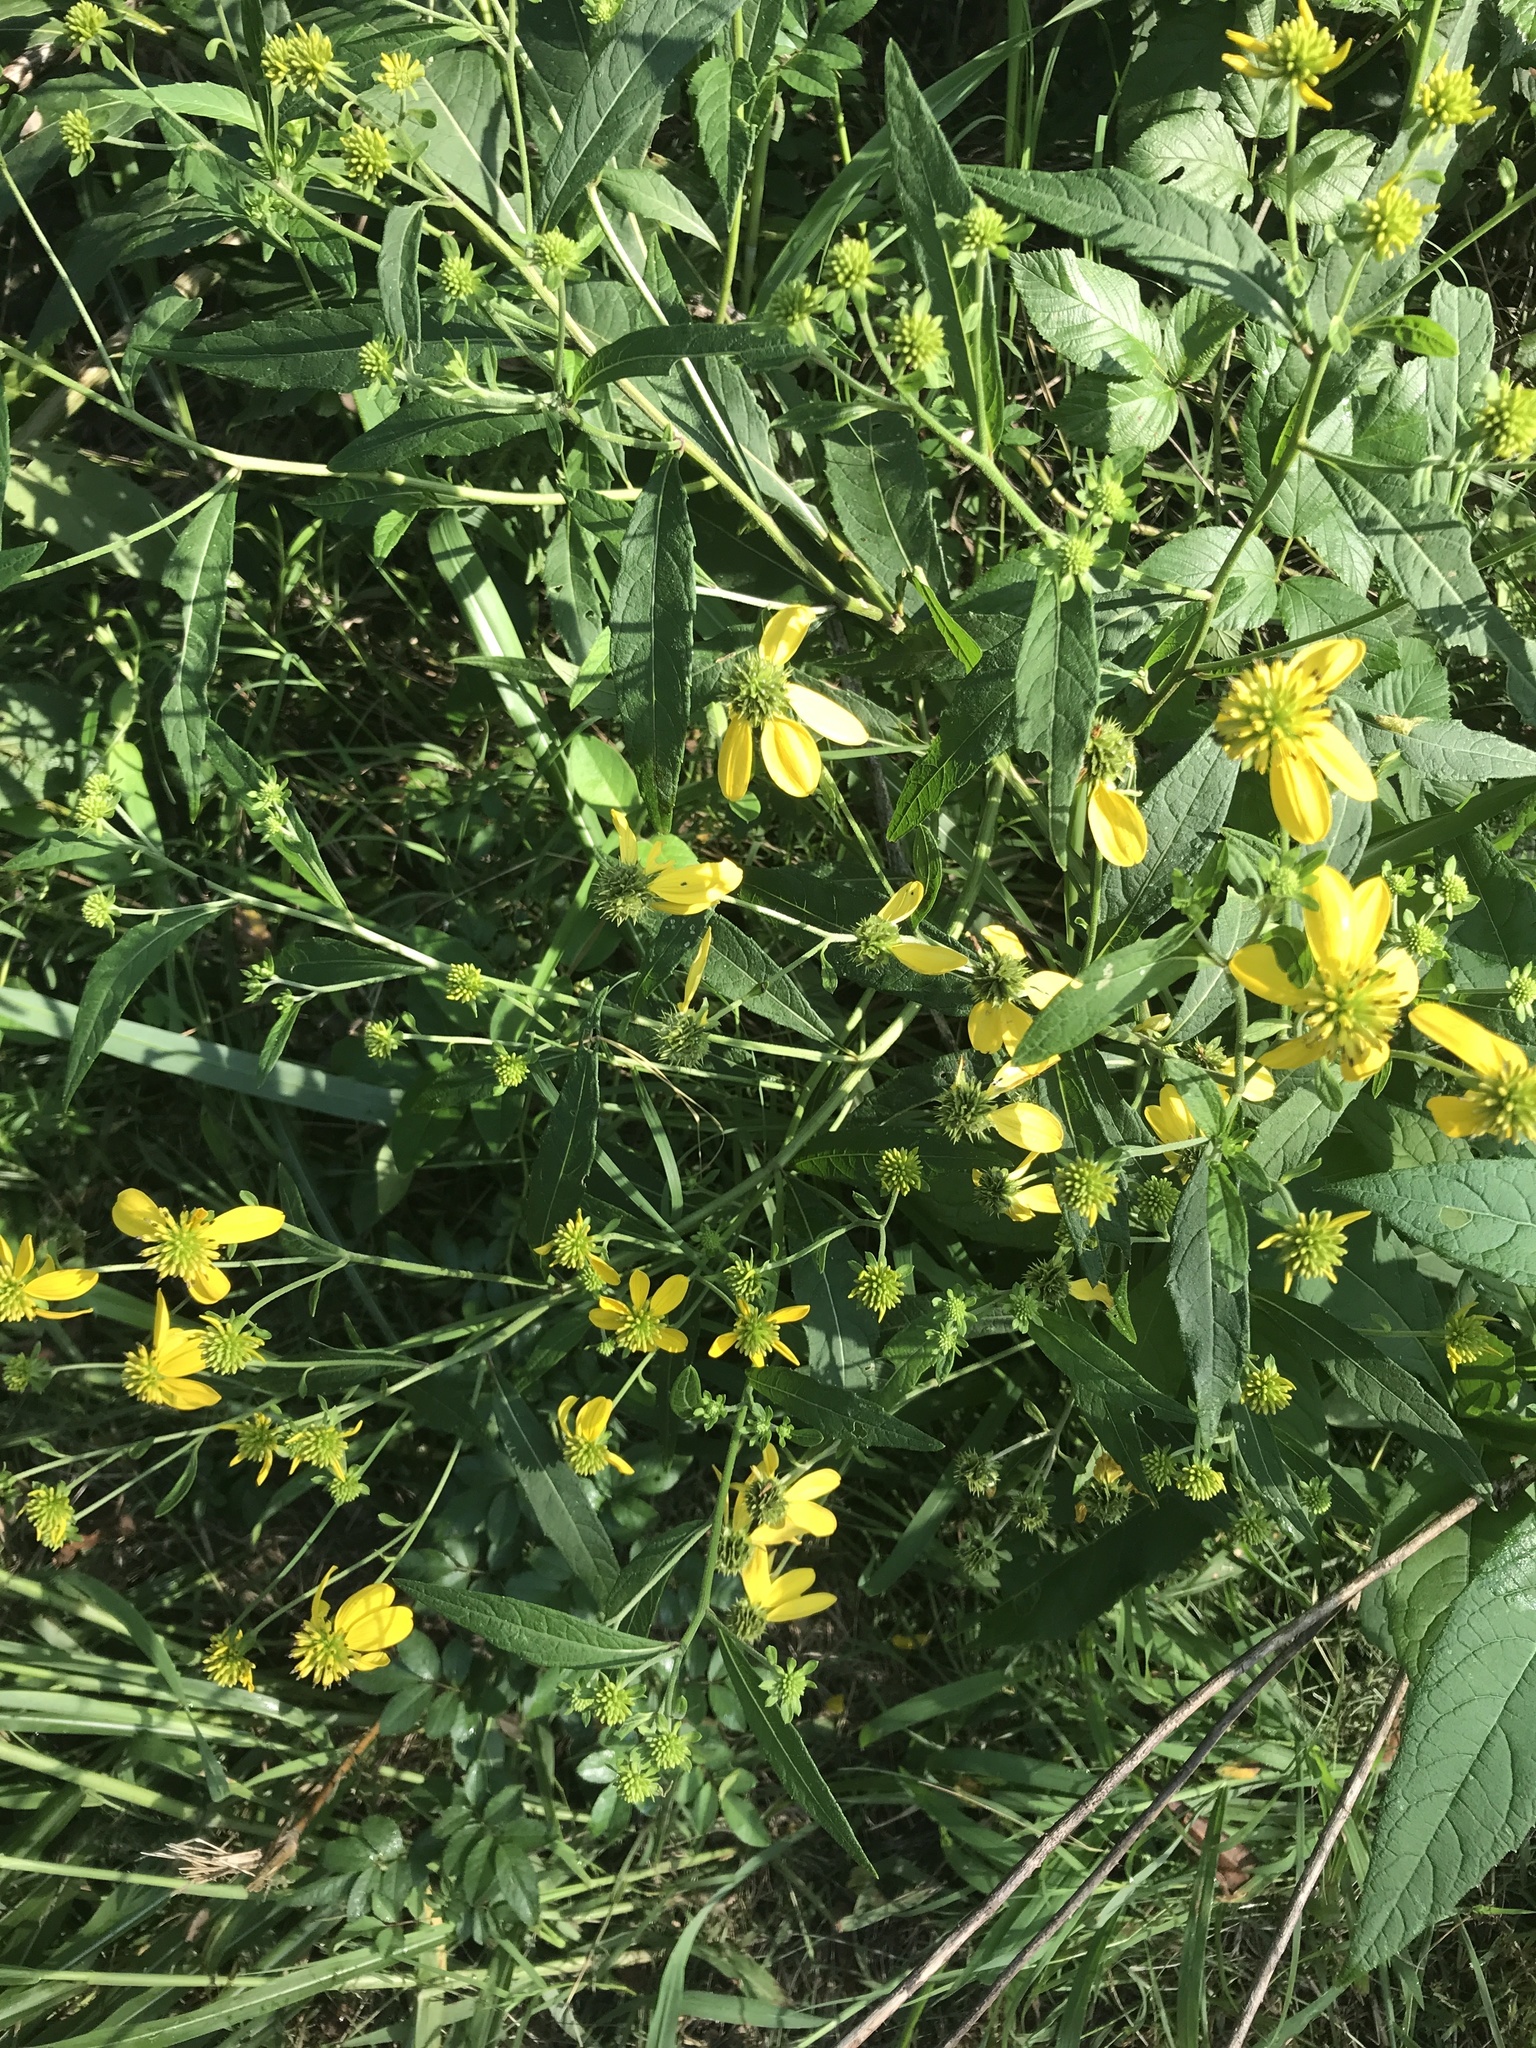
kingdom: Plantae
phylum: Tracheophyta
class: Magnoliopsida
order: Asterales
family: Asteraceae
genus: Verbesina
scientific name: Verbesina alternifolia
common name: Wingstem
